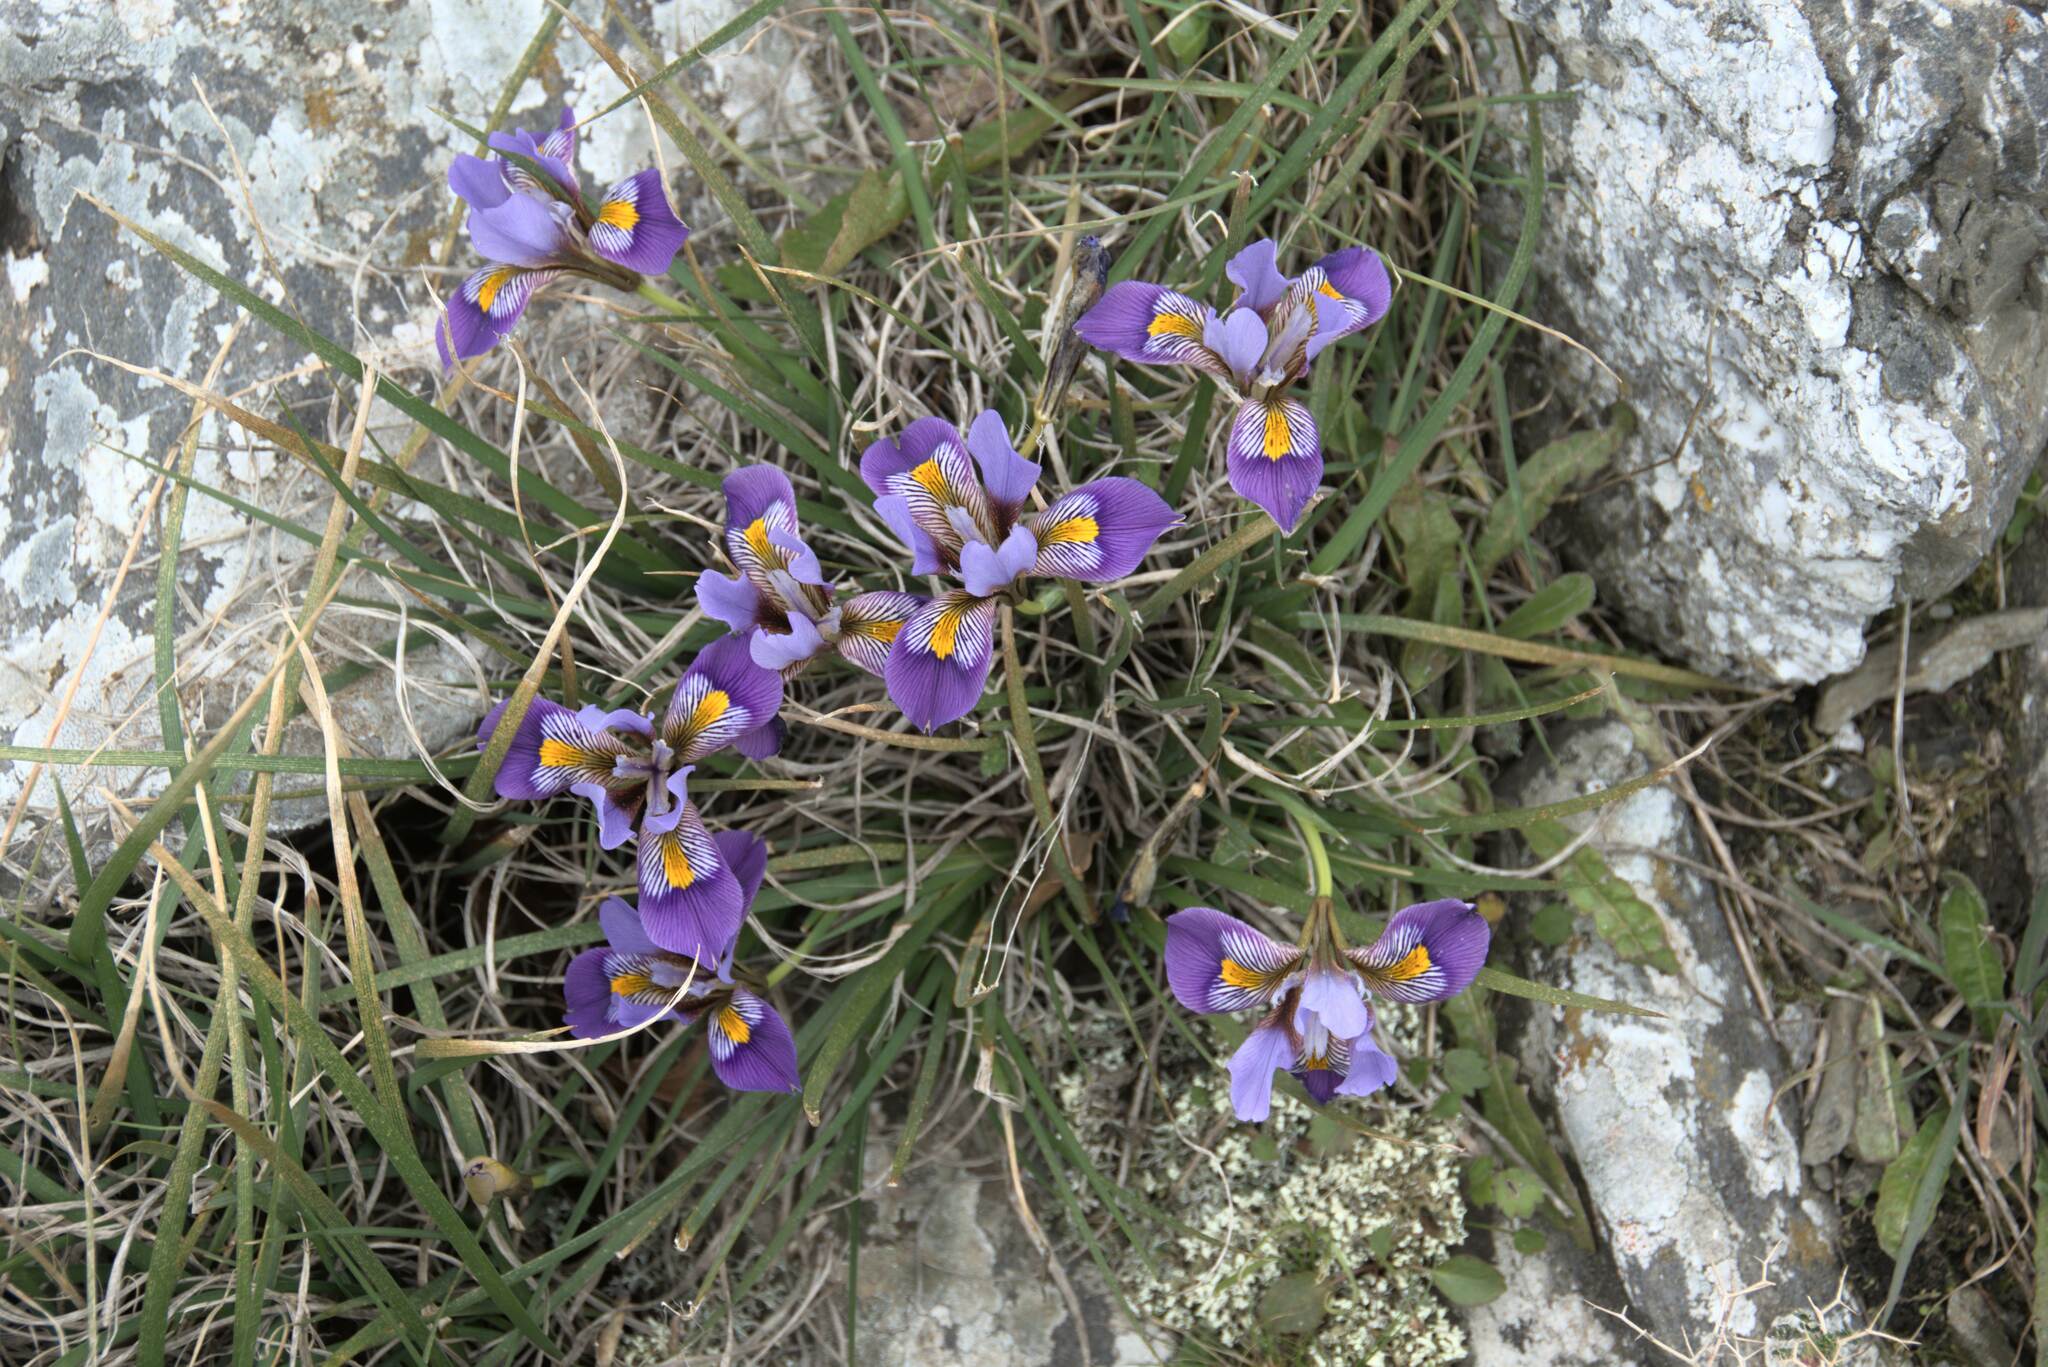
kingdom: Plantae
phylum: Tracheophyta
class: Liliopsida
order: Asparagales
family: Iridaceae
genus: Iris
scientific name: Iris unguicularis
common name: Algerian iris
